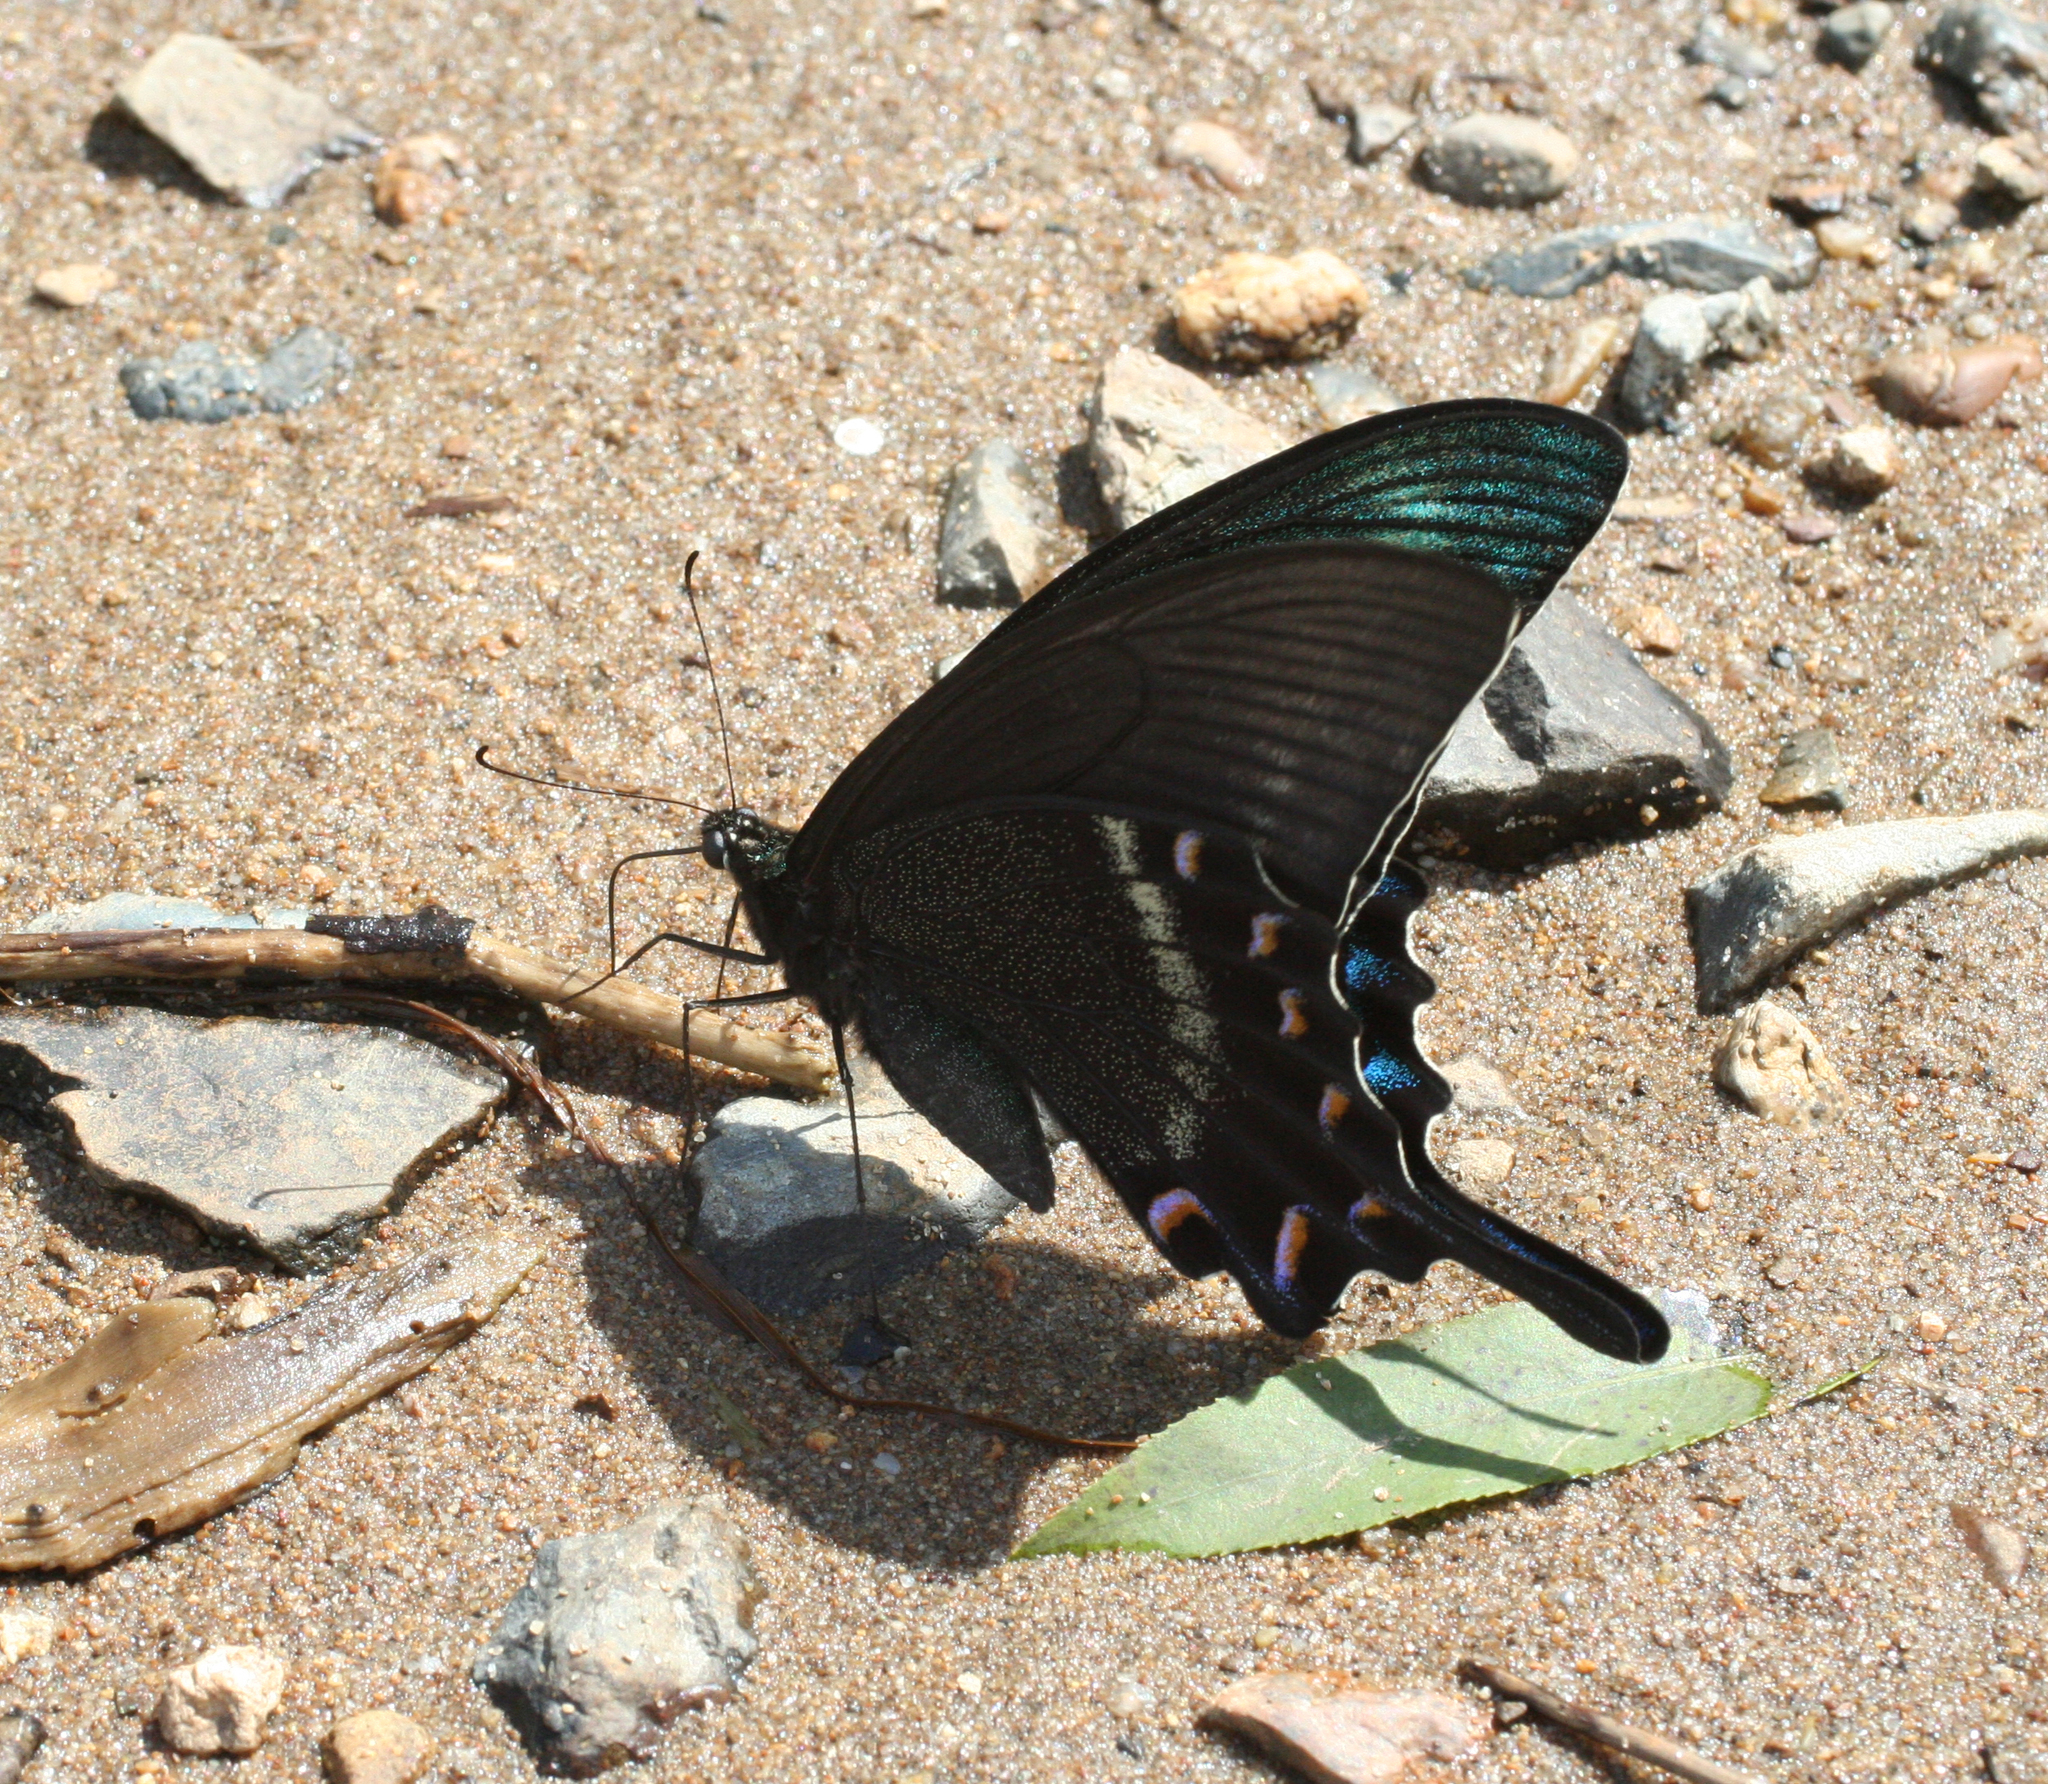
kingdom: Animalia
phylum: Arthropoda
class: Insecta
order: Lepidoptera
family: Papilionidae
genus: Papilio
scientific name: Papilio maackii
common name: Alpine black swallowtail
